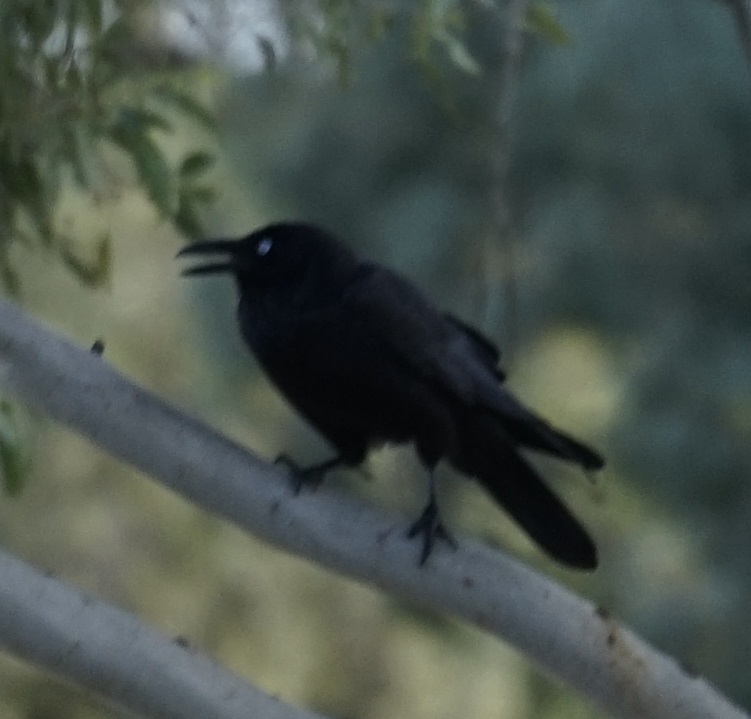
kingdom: Animalia
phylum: Chordata
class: Aves
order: Passeriformes
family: Corvidae
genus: Corvus
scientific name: Corvus coronoides
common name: Australian raven
